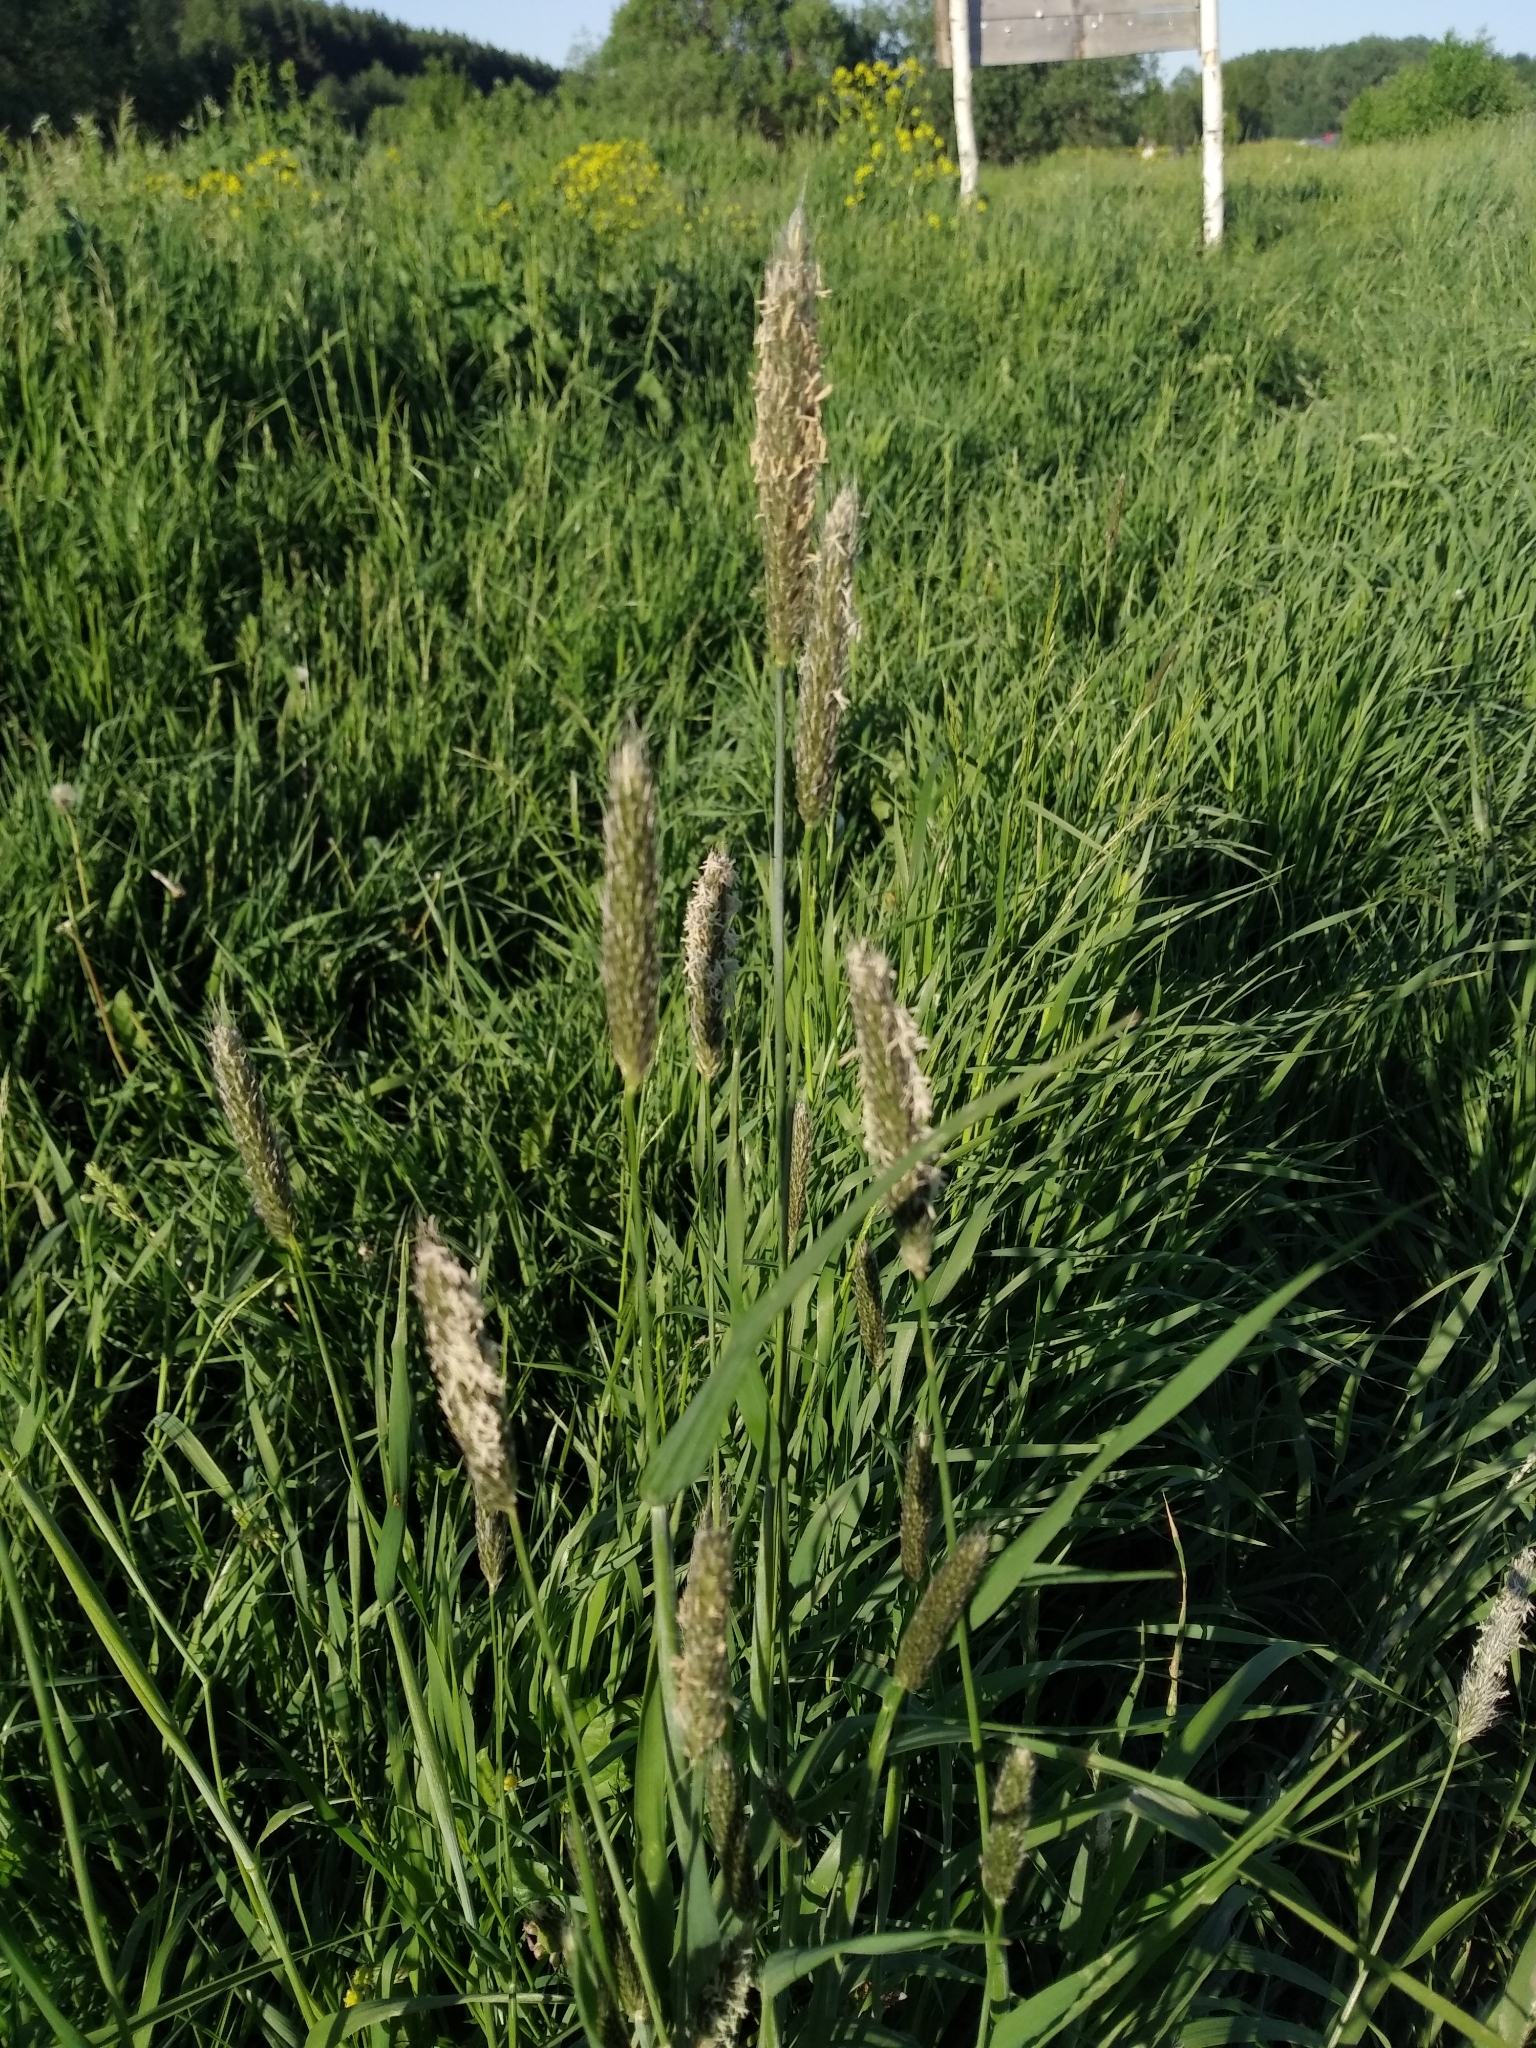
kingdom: Plantae
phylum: Tracheophyta
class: Liliopsida
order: Poales
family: Poaceae
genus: Alopecurus
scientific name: Alopecurus pratensis
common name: Meadow foxtail
